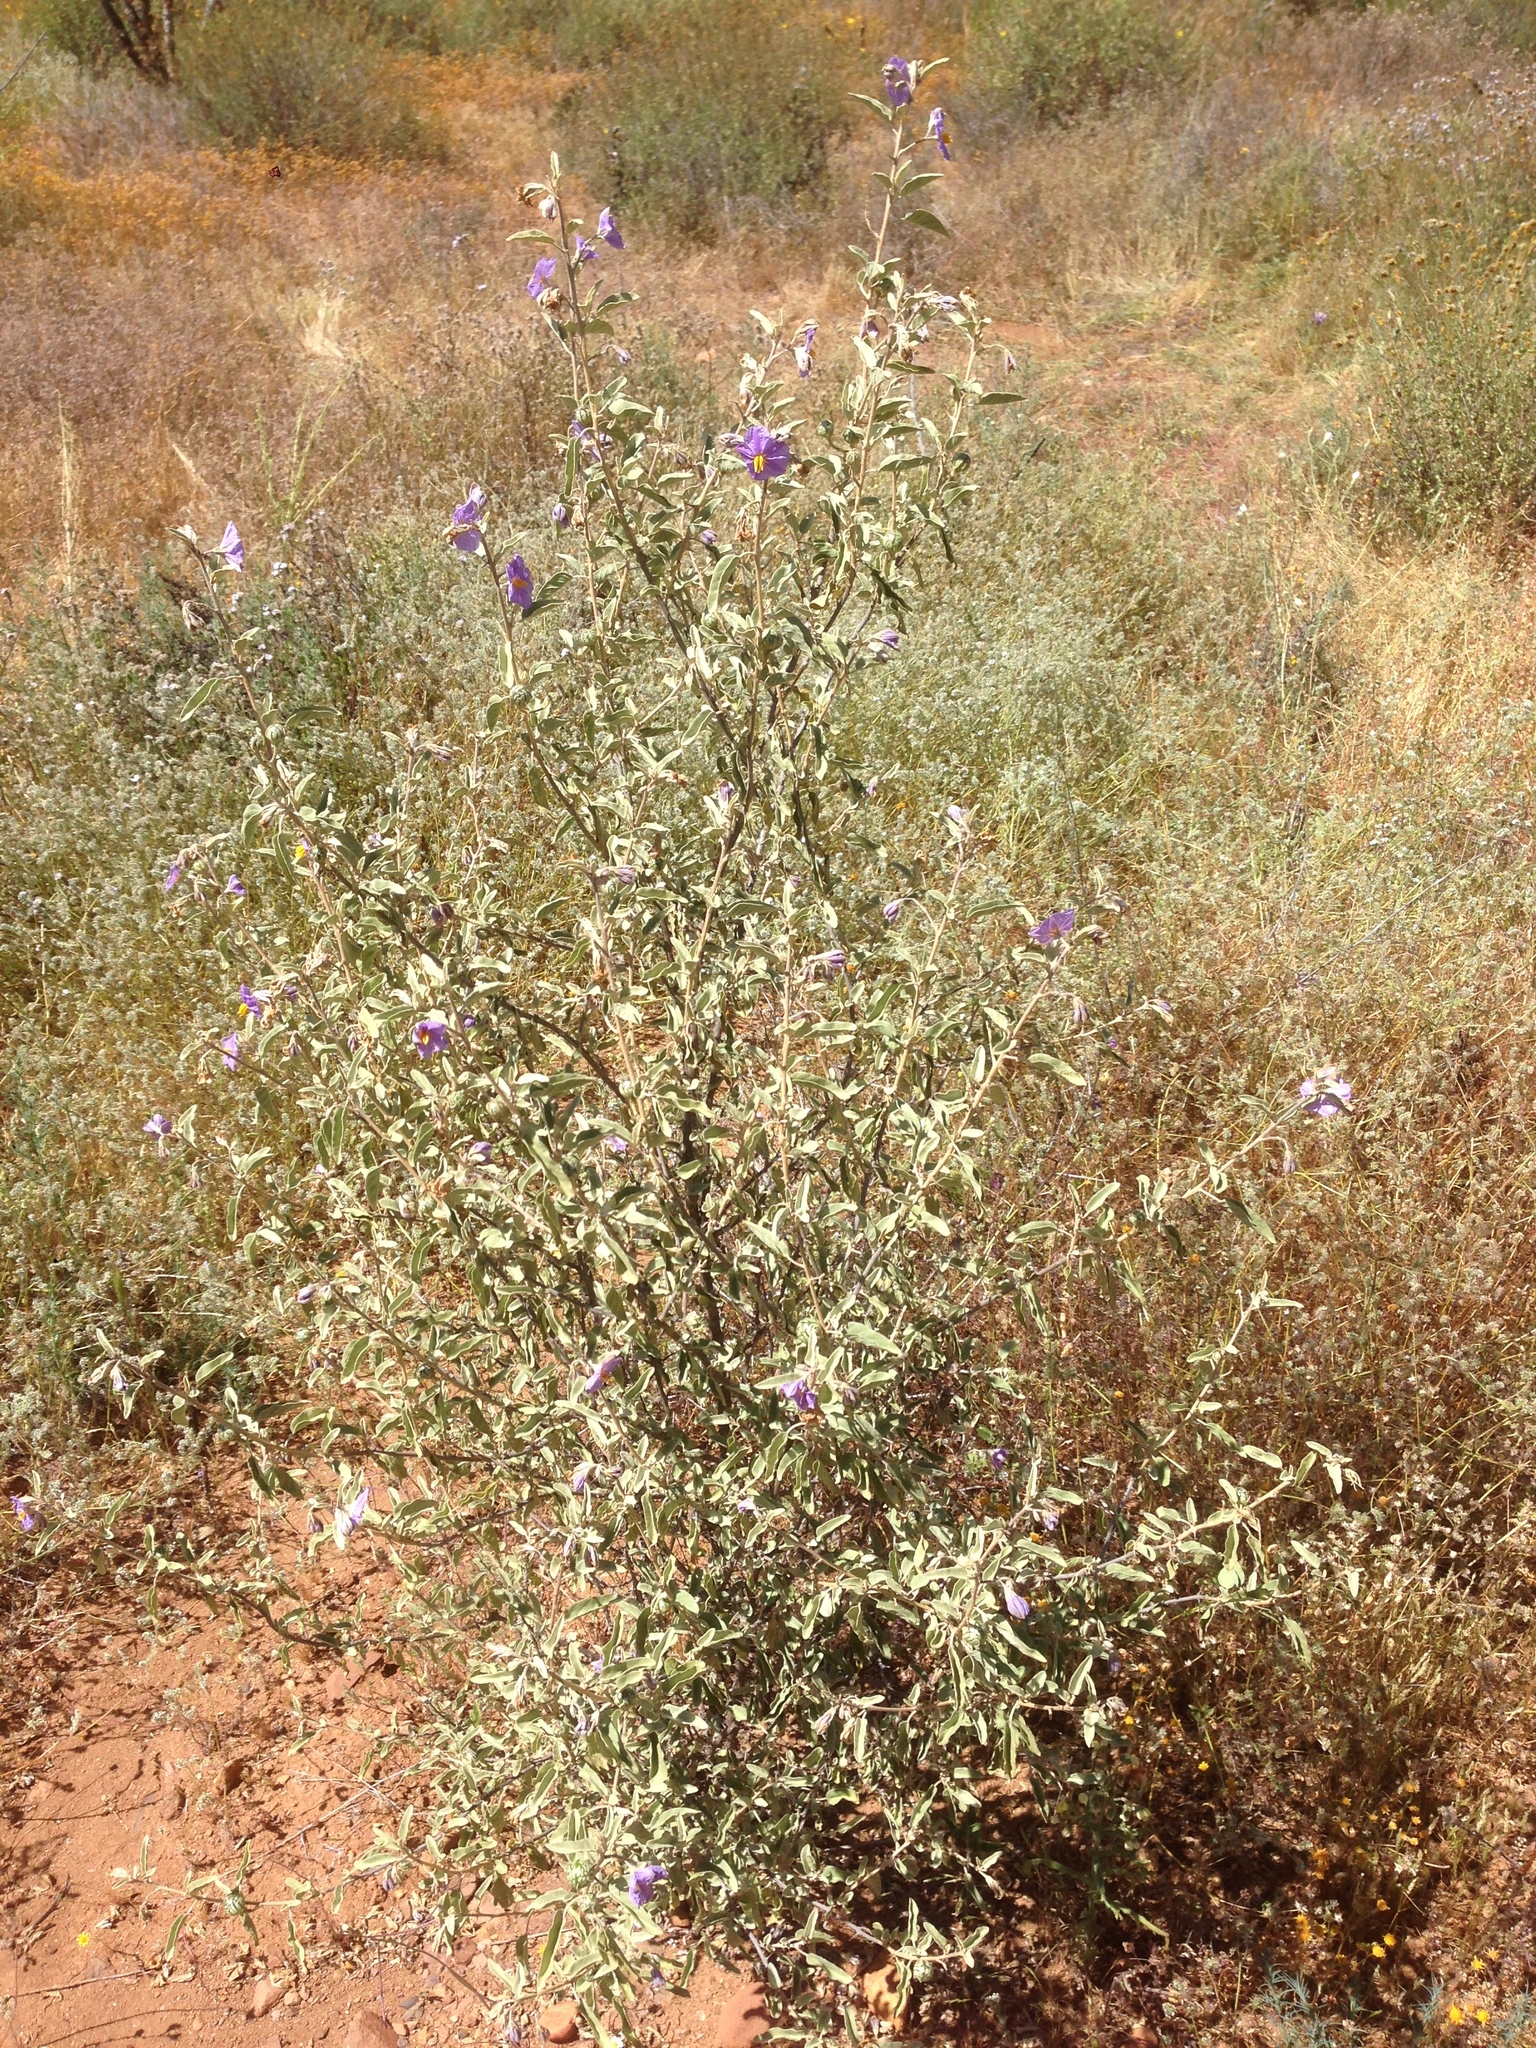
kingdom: Plantae
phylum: Tracheophyta
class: Magnoliopsida
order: Solanales
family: Solanaceae
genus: Solanum
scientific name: Solanum hindsianum
